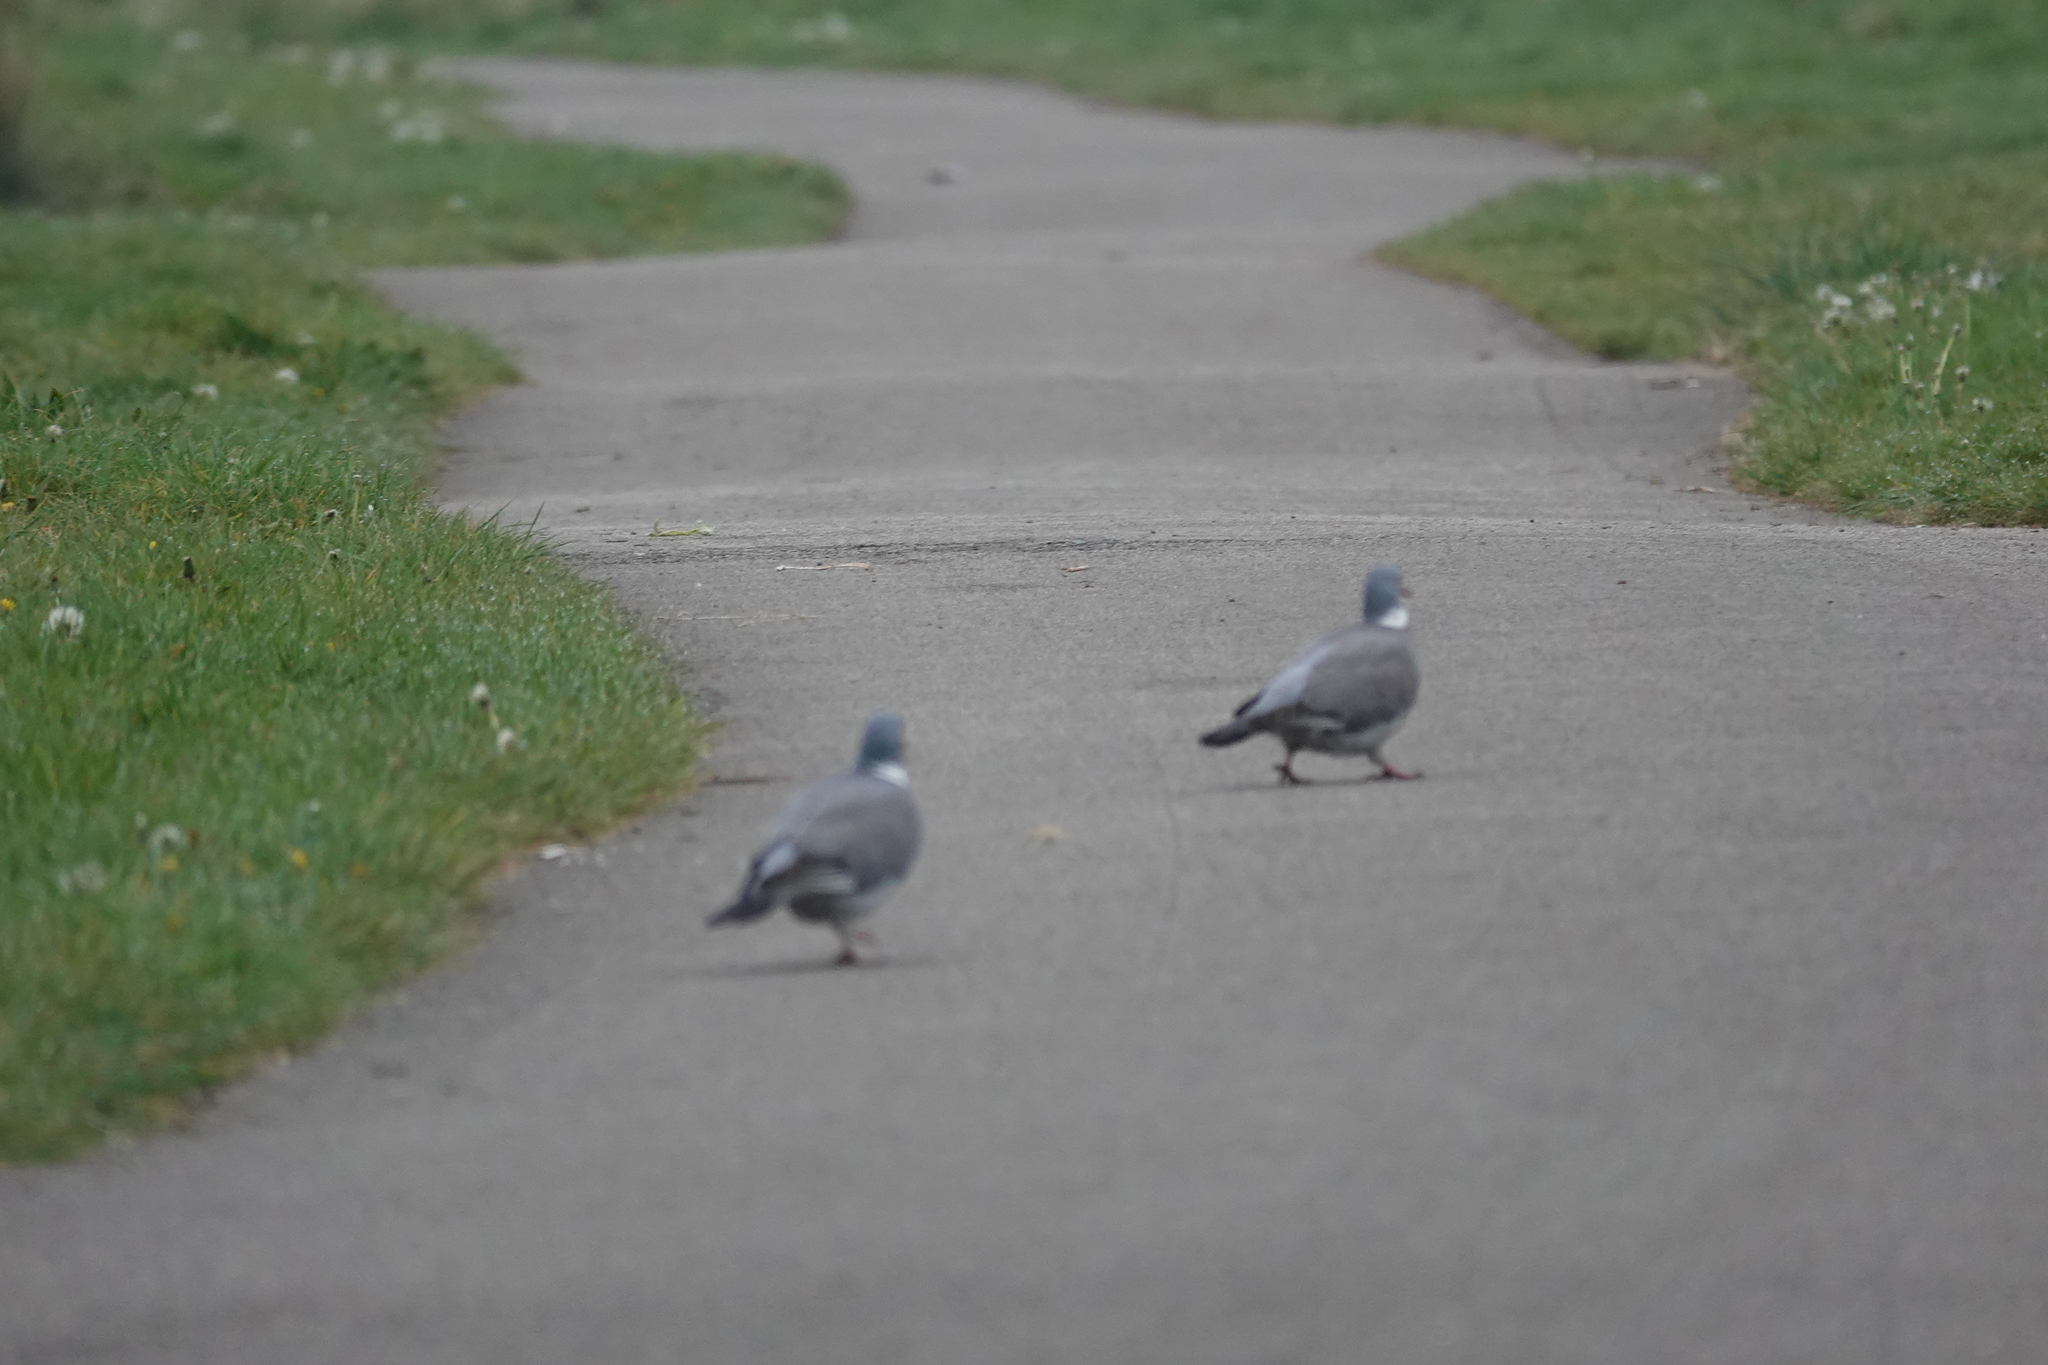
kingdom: Animalia
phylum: Chordata
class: Aves
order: Columbiformes
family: Columbidae
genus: Columba
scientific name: Columba palumbus
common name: Common wood pigeon
